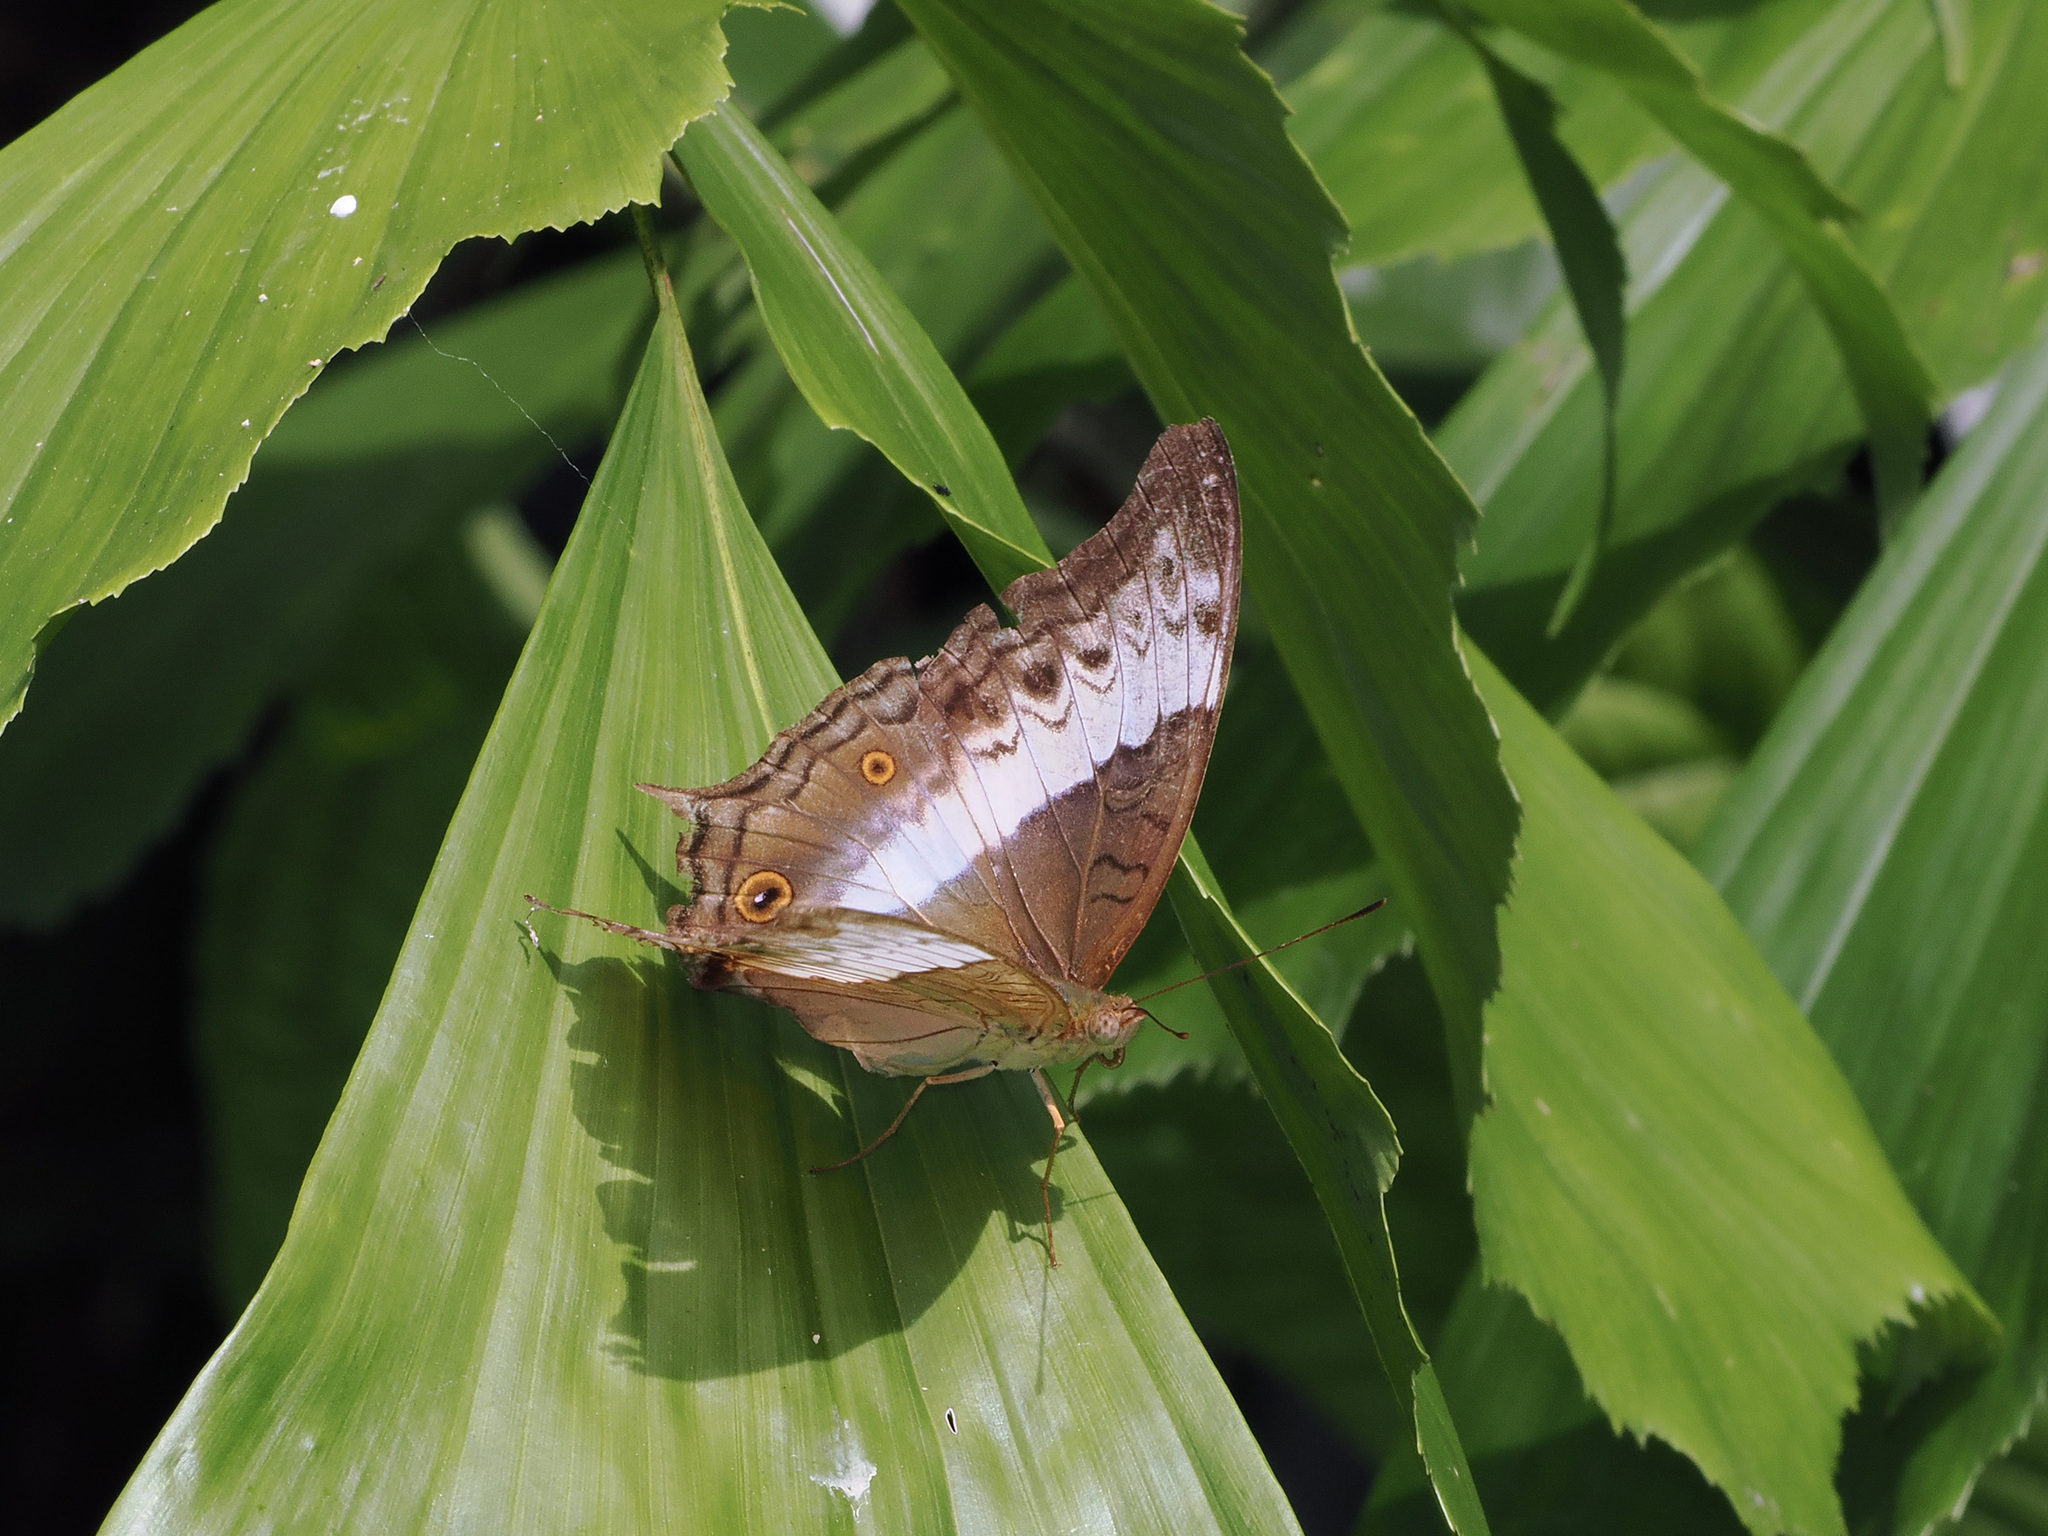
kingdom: Animalia
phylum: Arthropoda
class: Insecta
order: Lepidoptera
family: Nymphalidae
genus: Vindula
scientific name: Vindula deione
